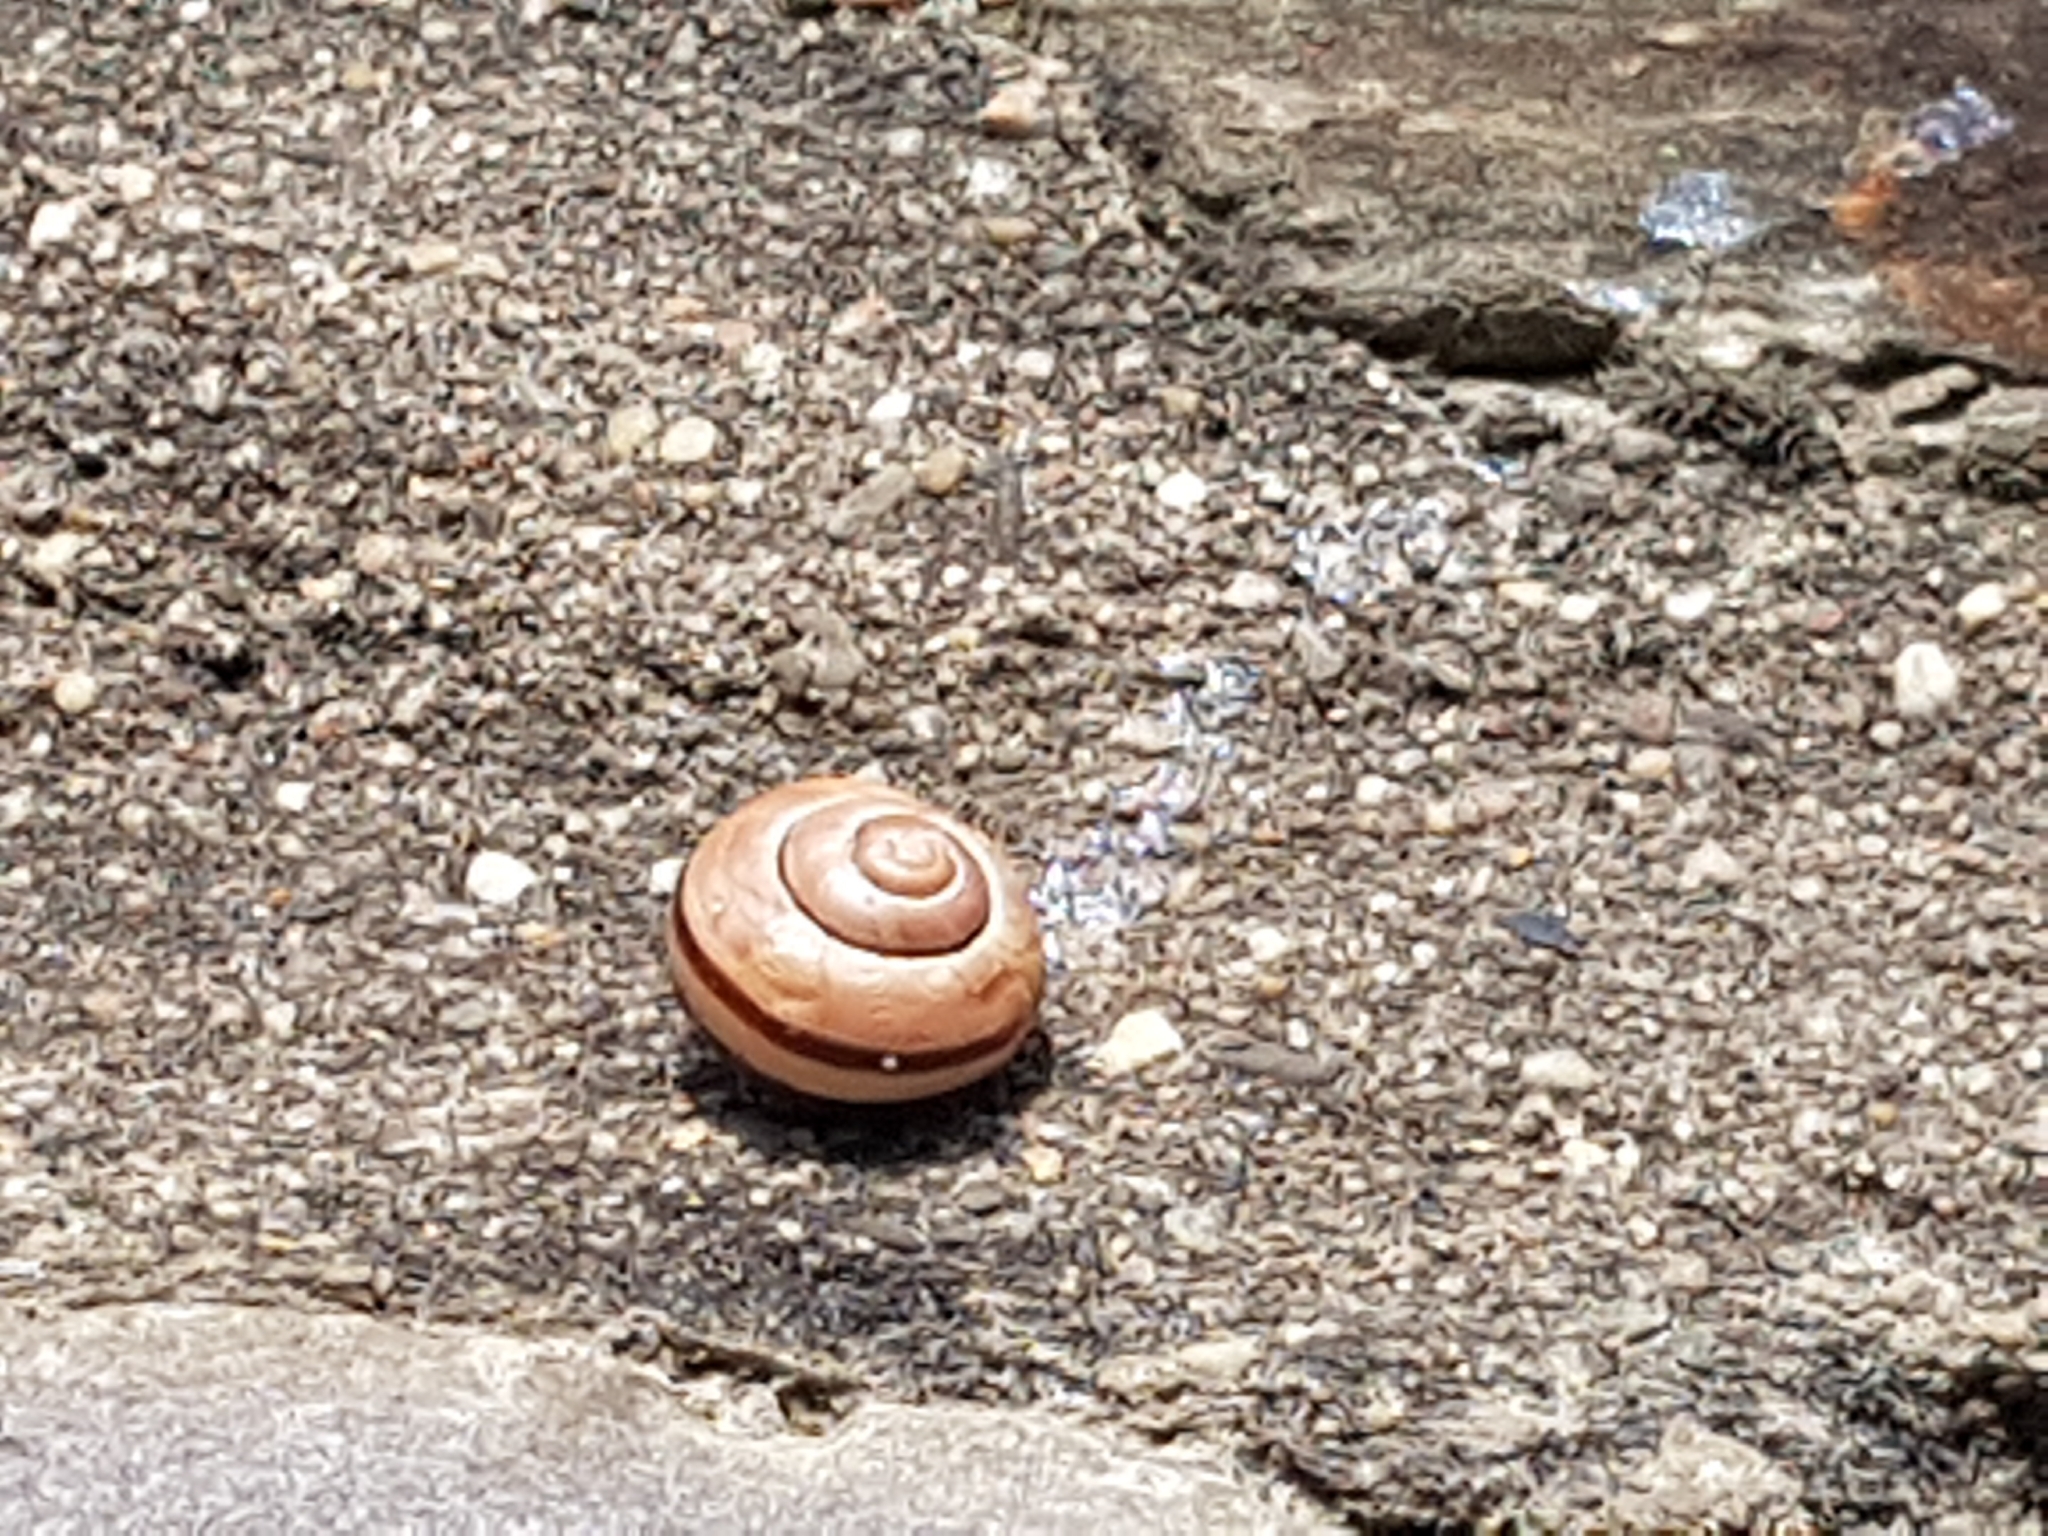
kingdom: Animalia
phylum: Mollusca
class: Gastropoda
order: Stylommatophora
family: Helicidae
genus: Cepaea
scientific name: Cepaea nemoralis
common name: Grovesnail
